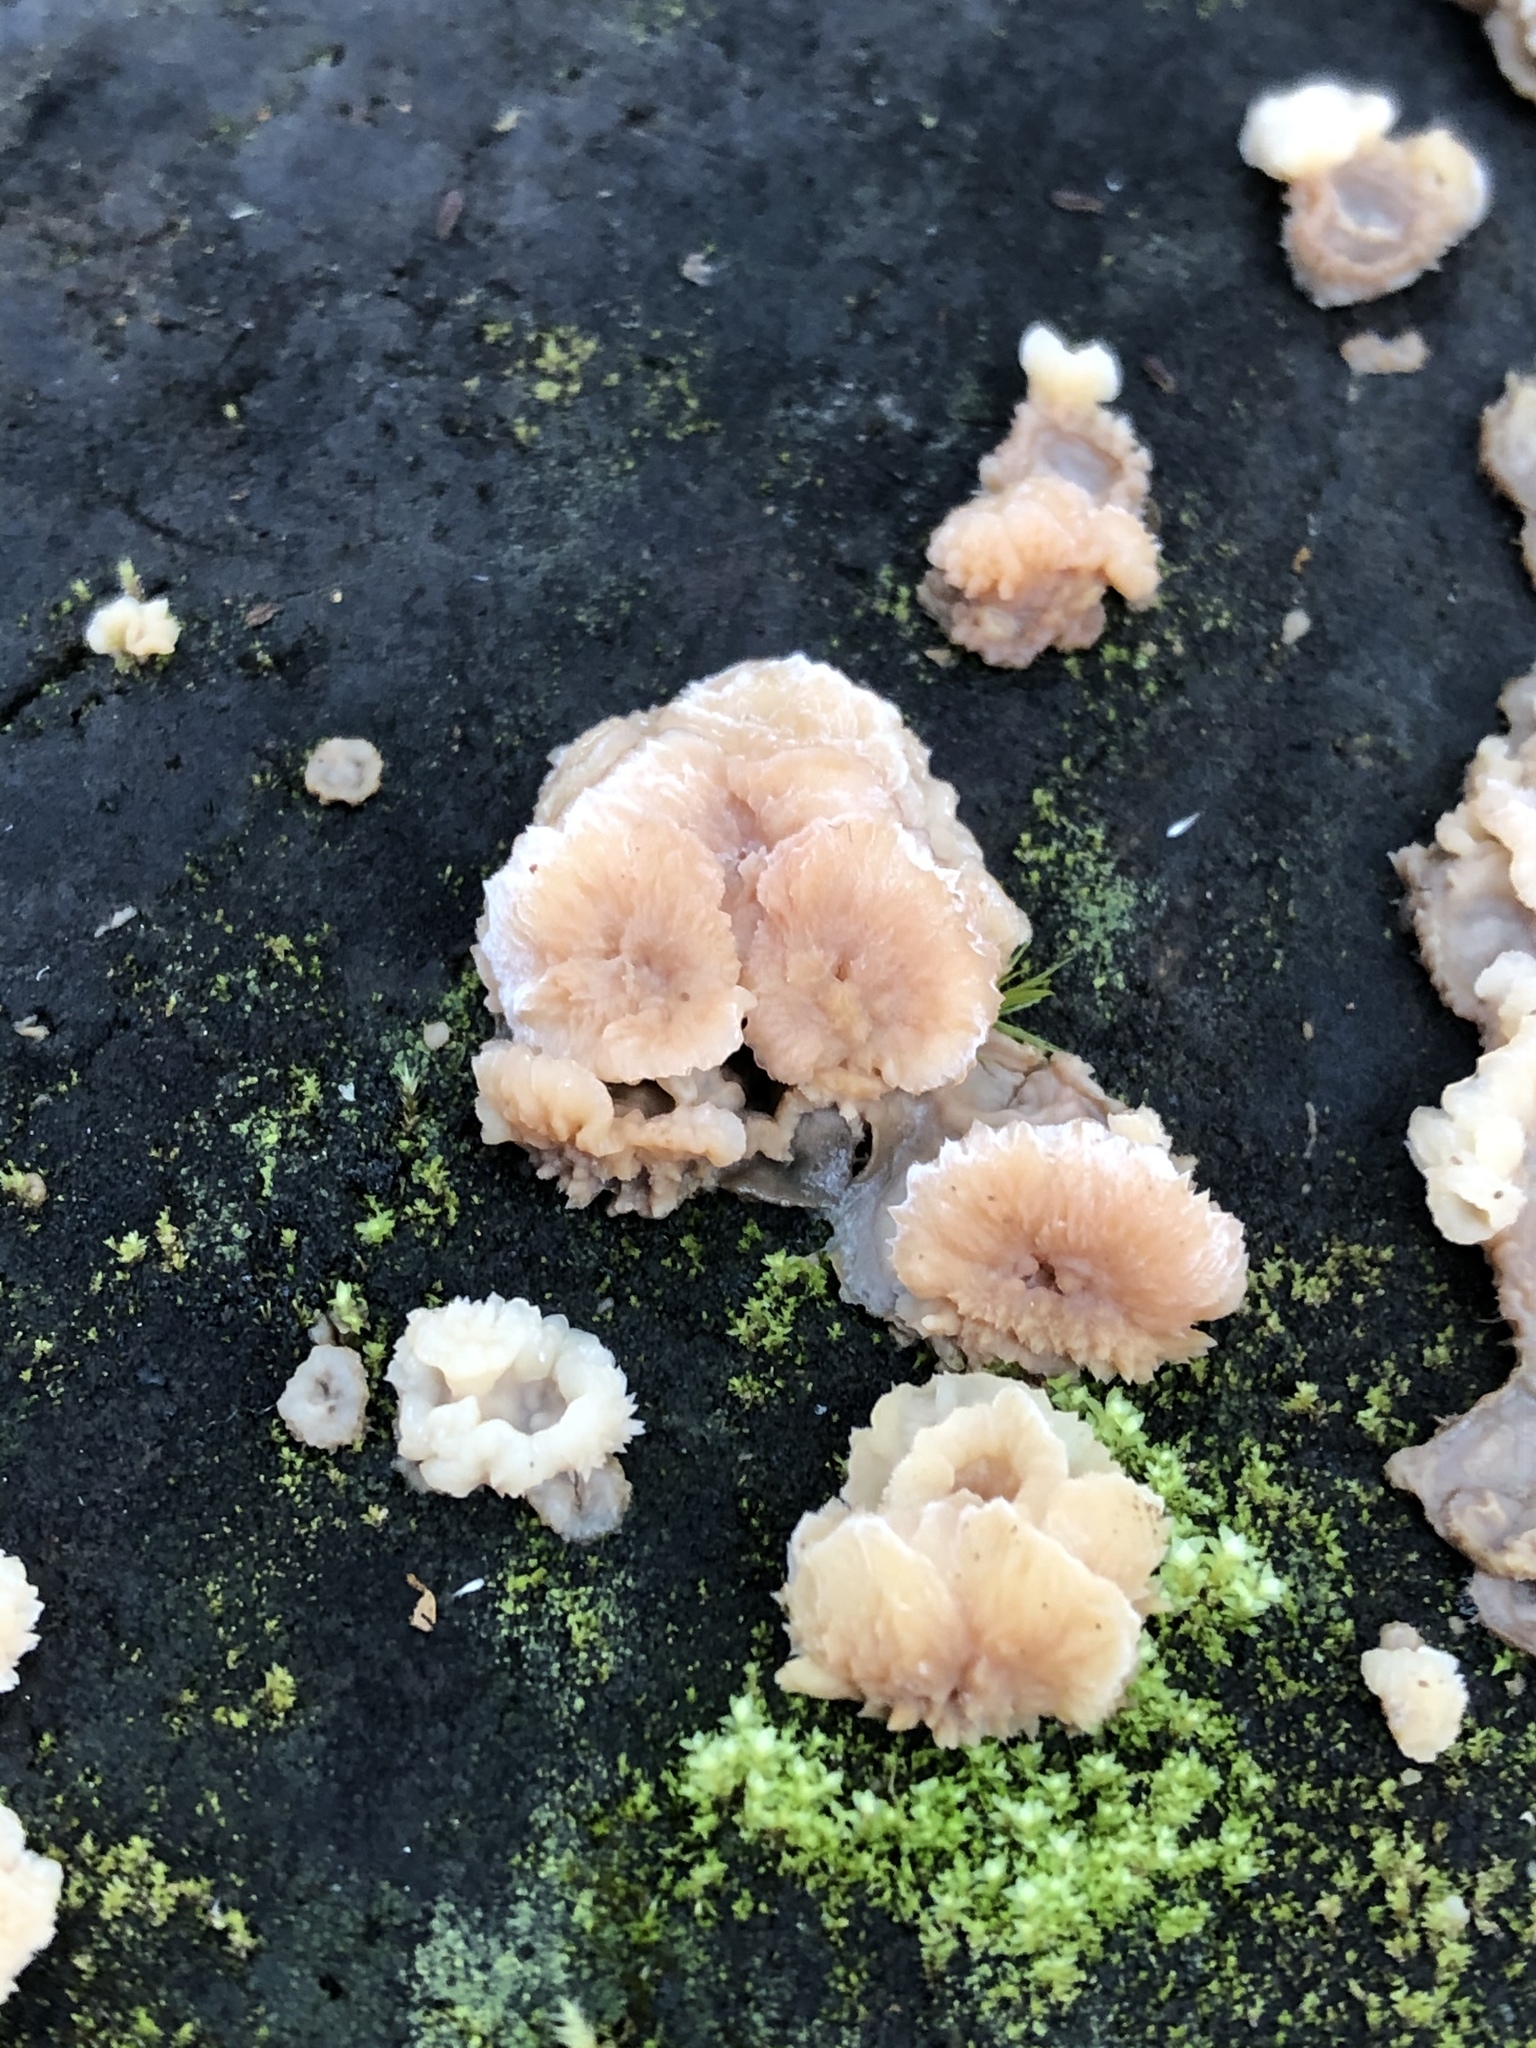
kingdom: Fungi
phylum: Basidiomycota
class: Agaricomycetes
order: Polyporales
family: Meruliaceae
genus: Phlebia
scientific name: Phlebia tremellosa
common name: Jelly rot
